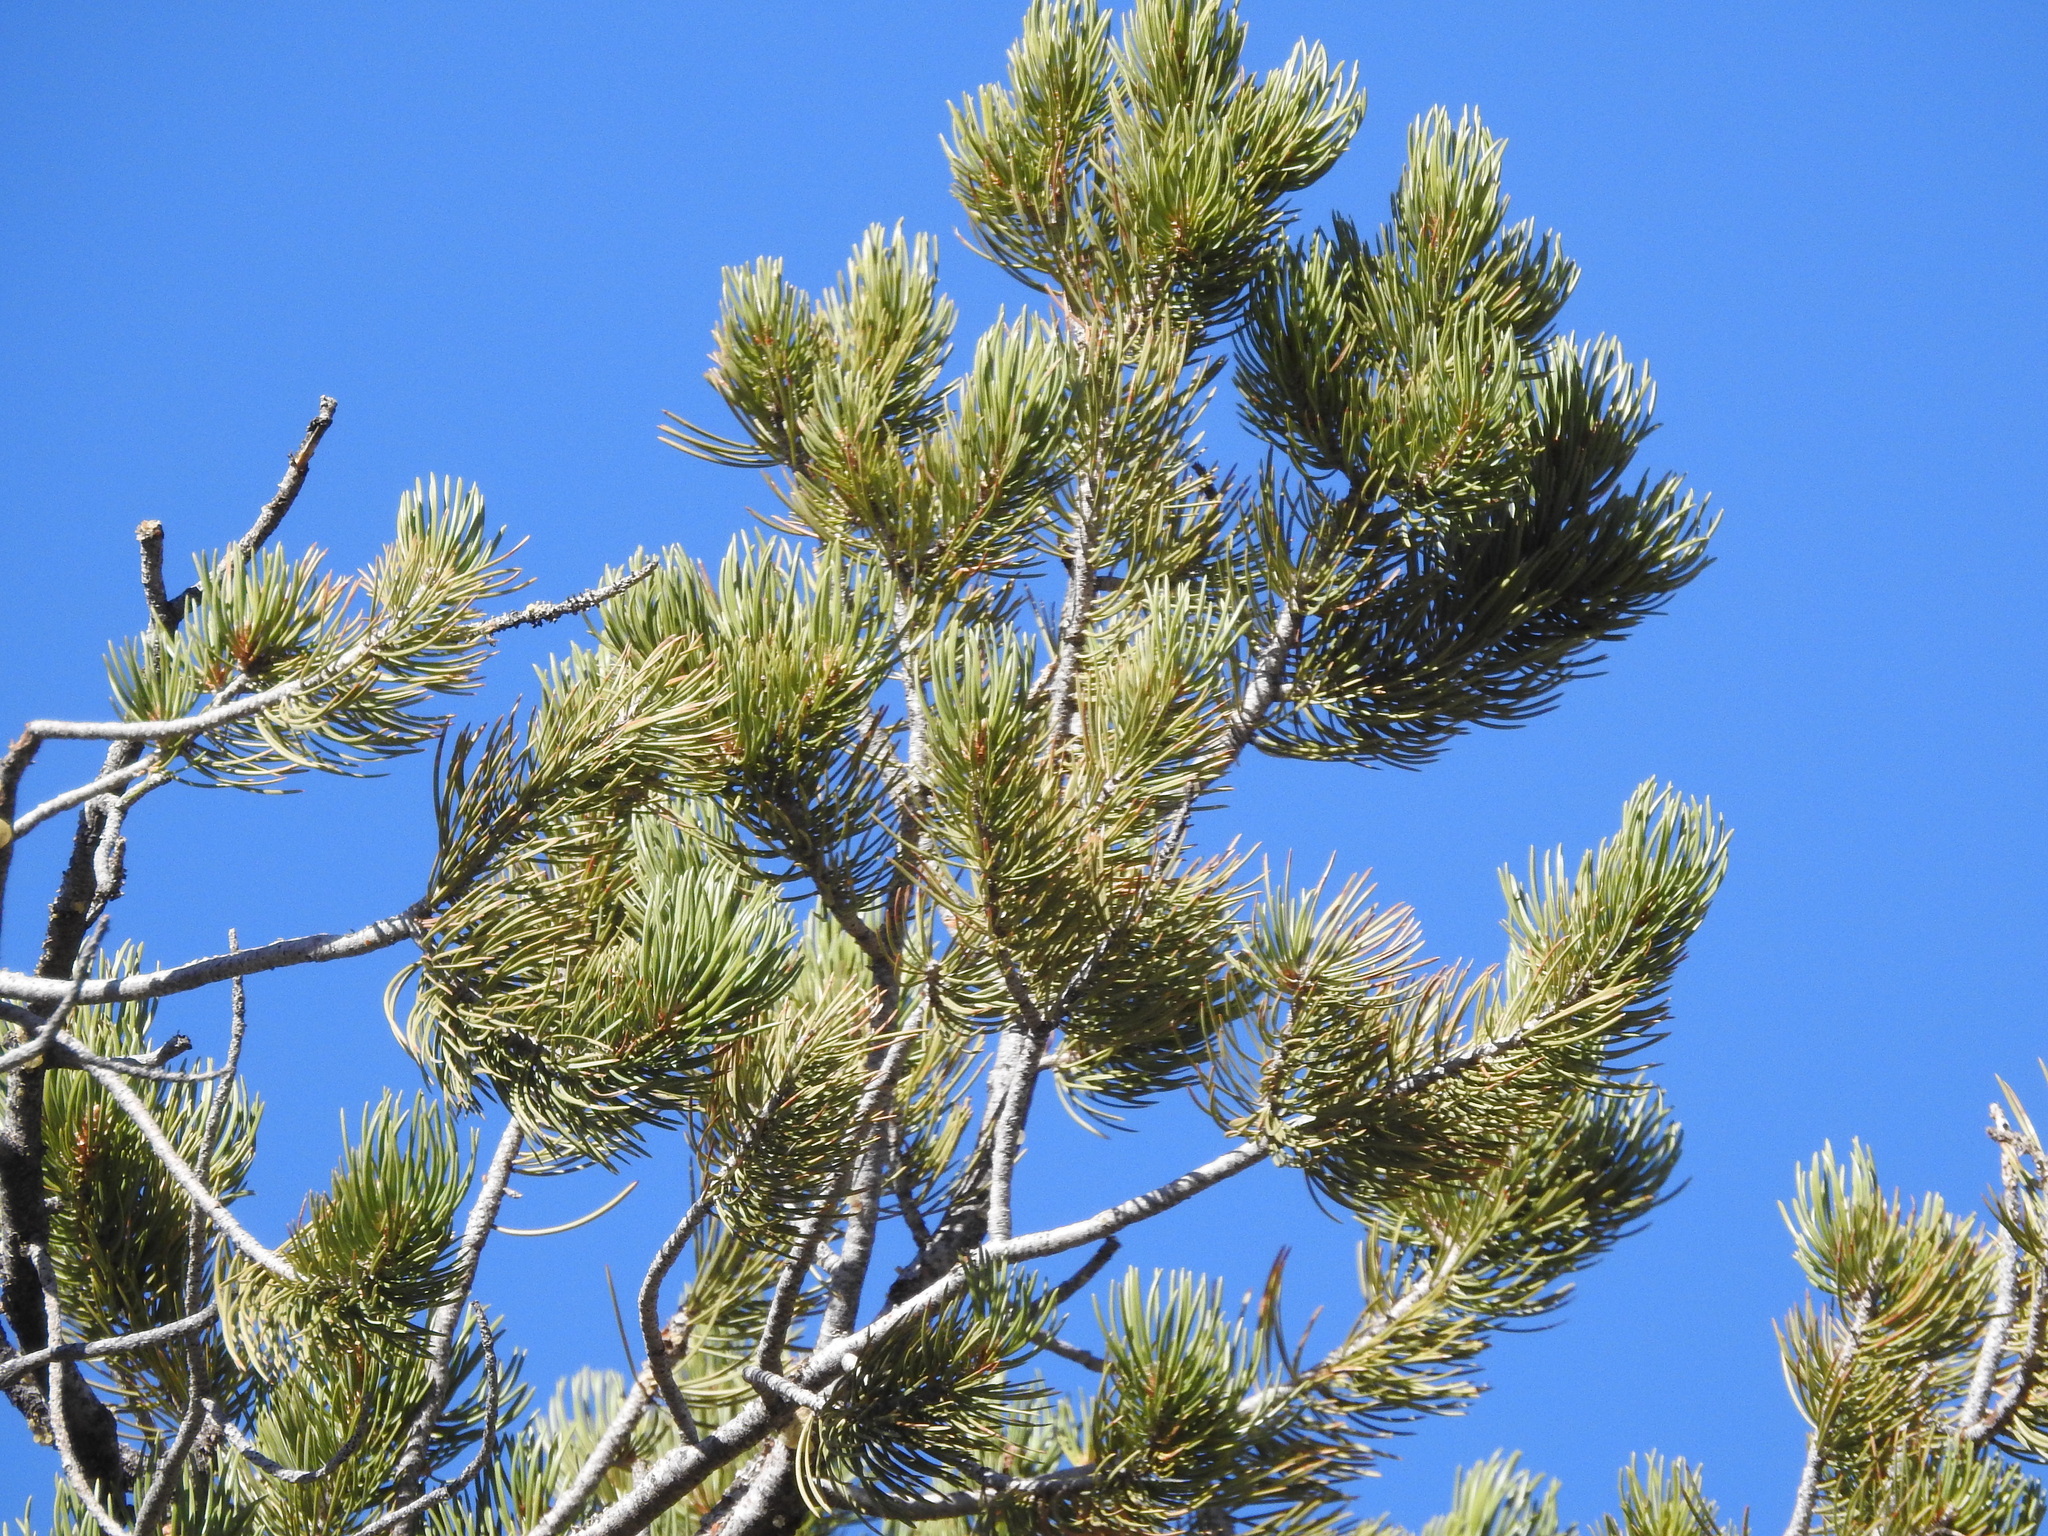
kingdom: Plantae
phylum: Tracheophyta
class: Pinopsida
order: Pinales
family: Pinaceae
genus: Pinus
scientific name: Pinus edulis
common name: Colorado pinyon
